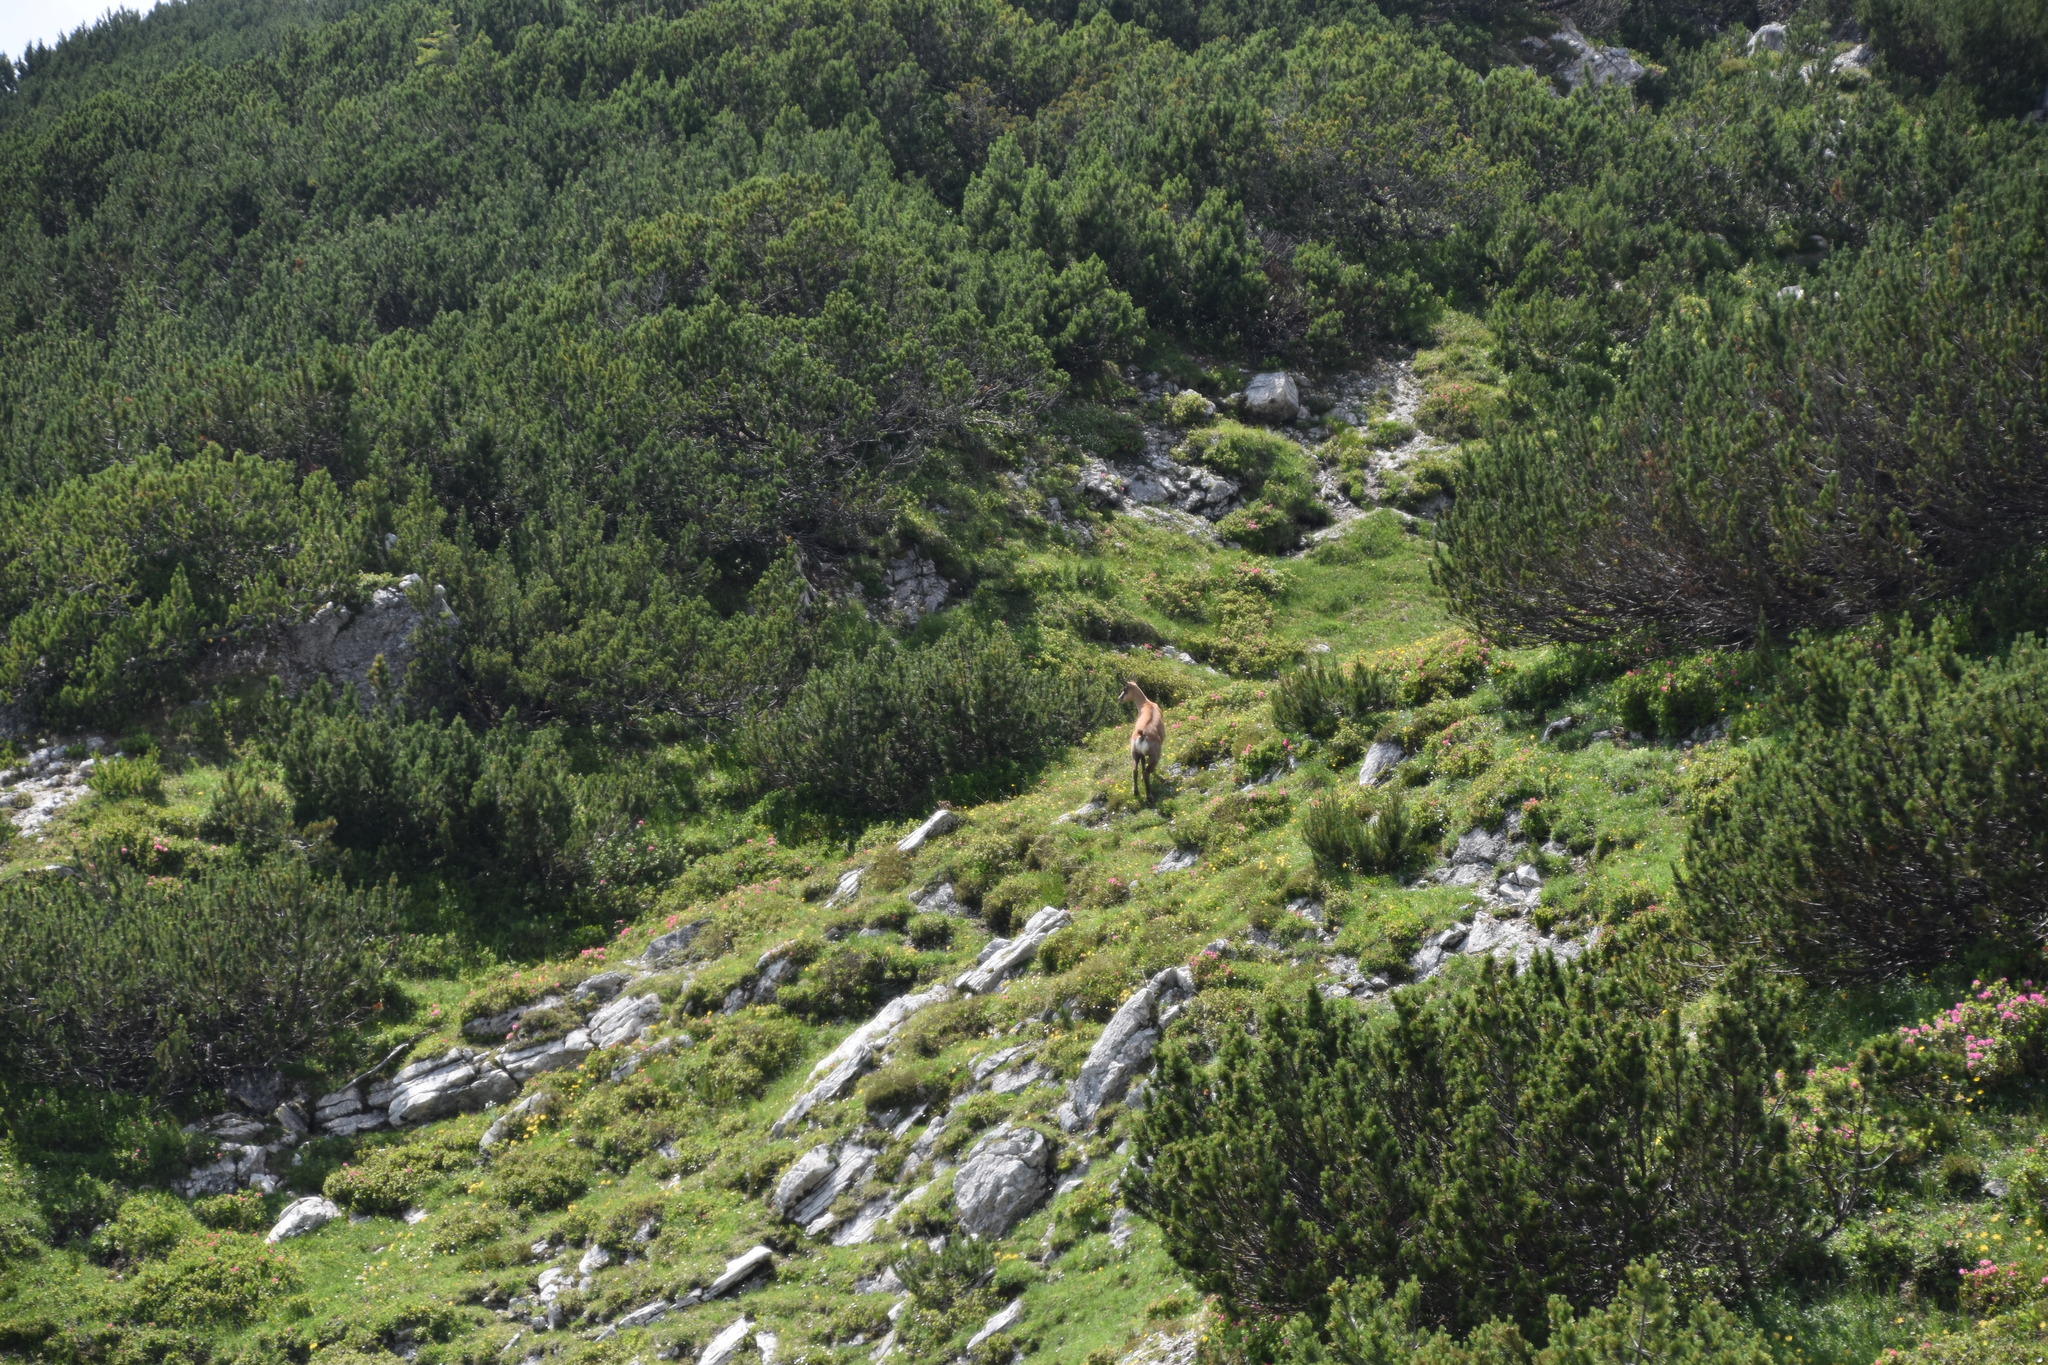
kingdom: Animalia
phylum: Chordata
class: Mammalia
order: Artiodactyla
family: Bovidae
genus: Rupicapra
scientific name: Rupicapra rupicapra
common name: Chamois
